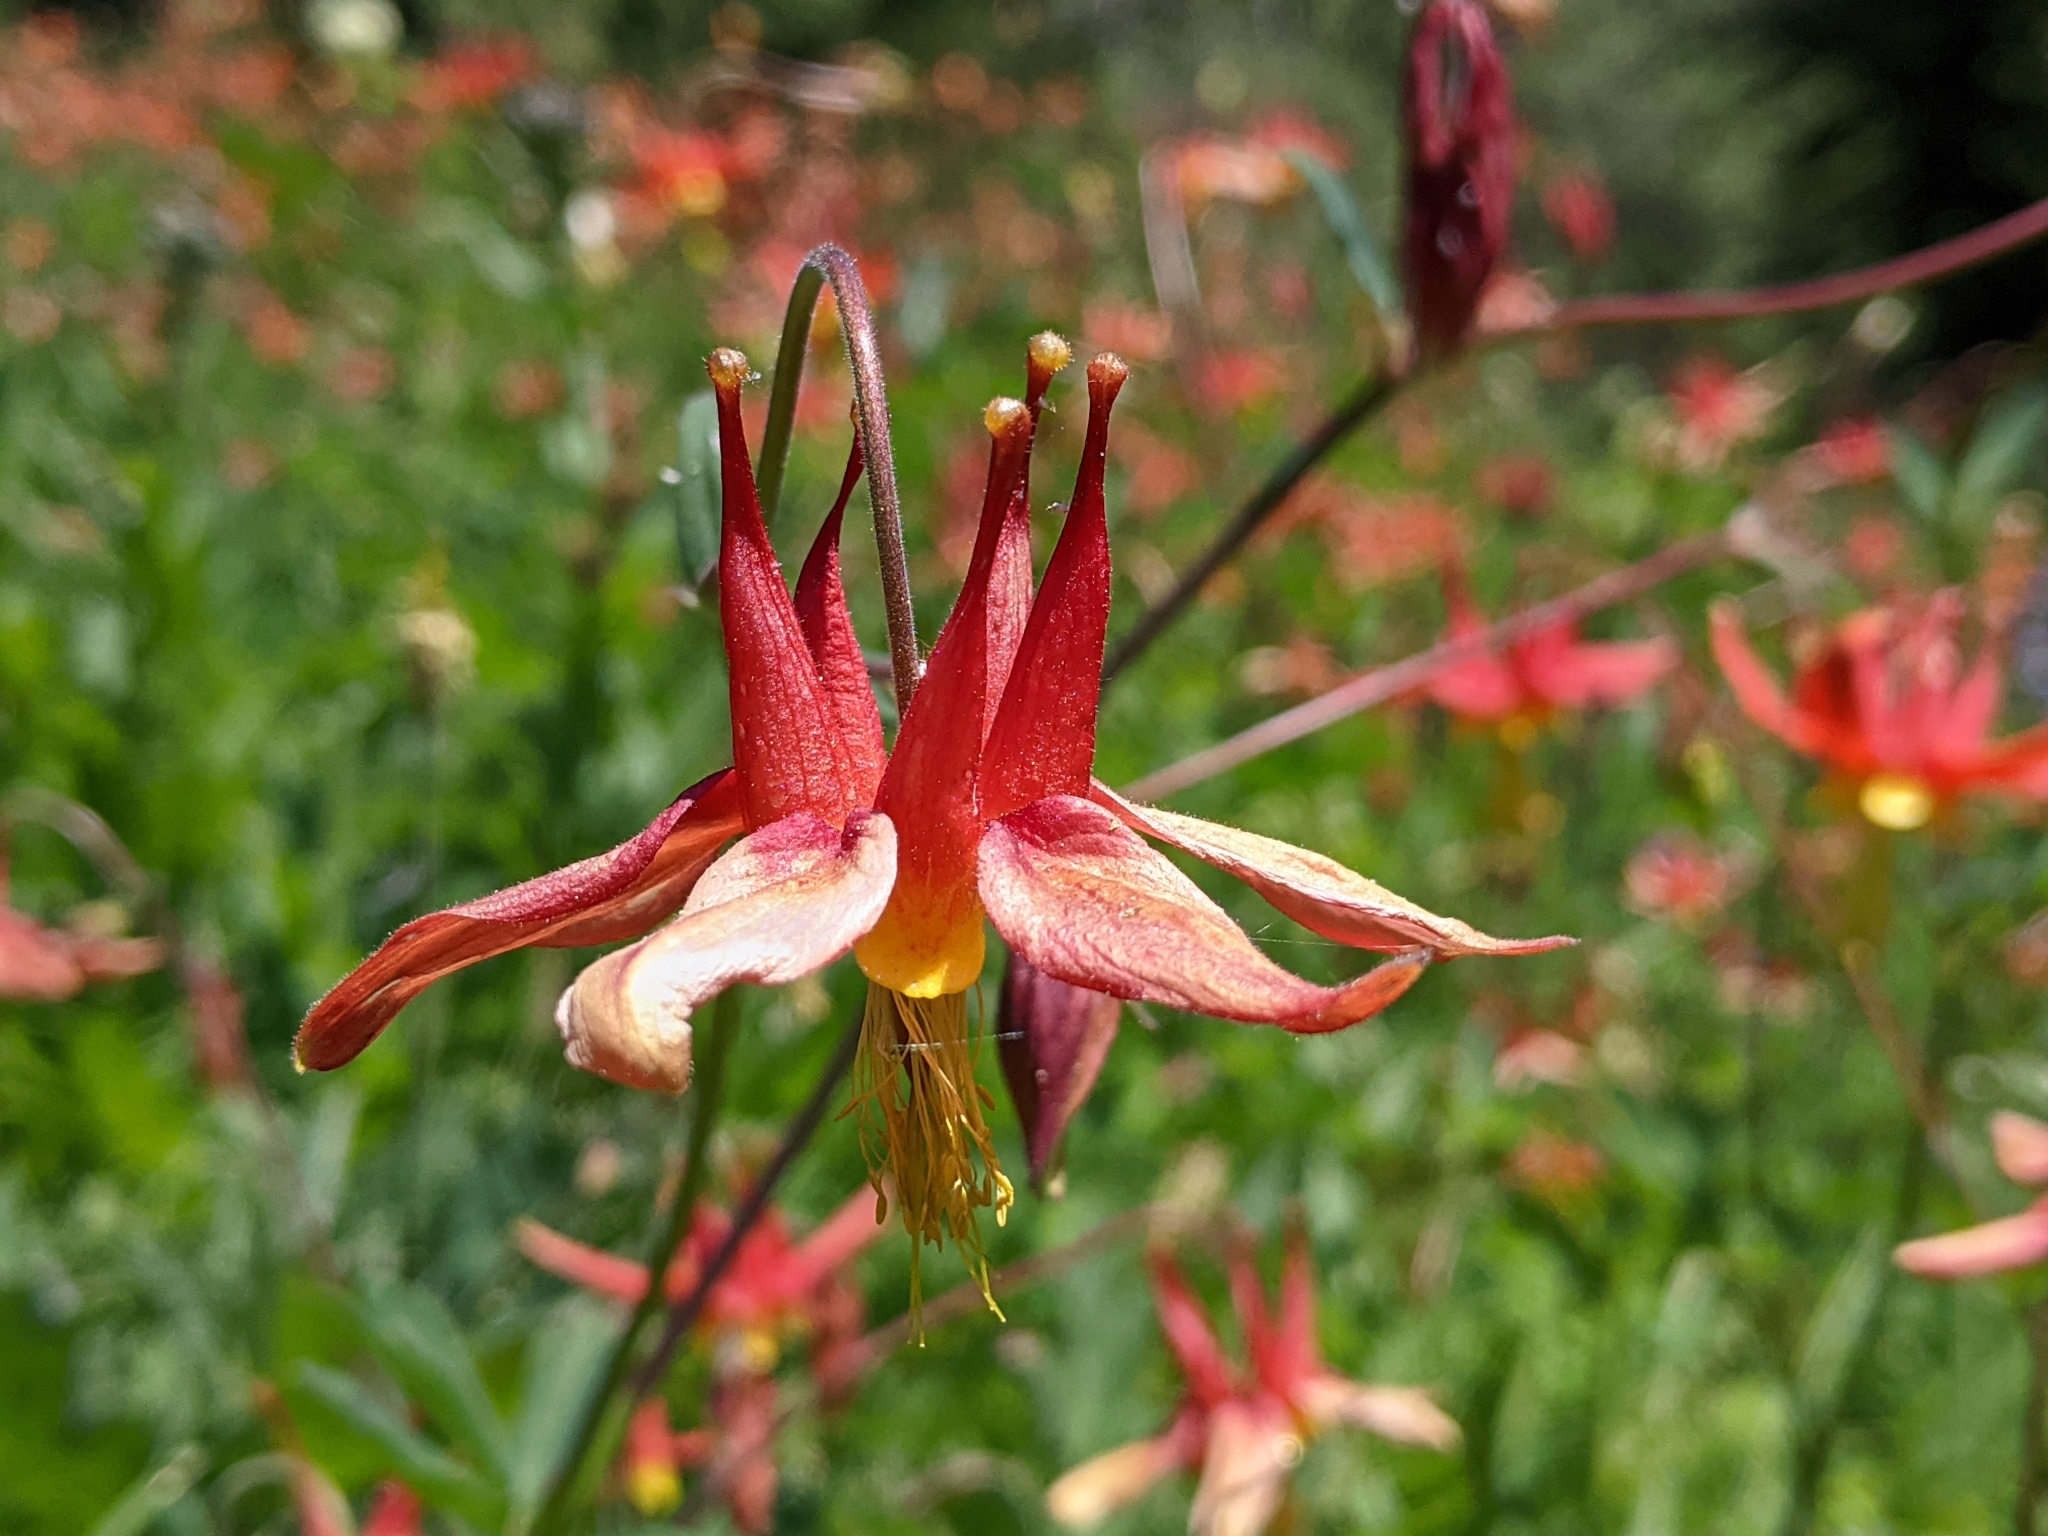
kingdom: Plantae
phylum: Tracheophyta
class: Magnoliopsida
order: Ranunculales
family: Ranunculaceae
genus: Aquilegia
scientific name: Aquilegia formosa
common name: Sitka columbine
